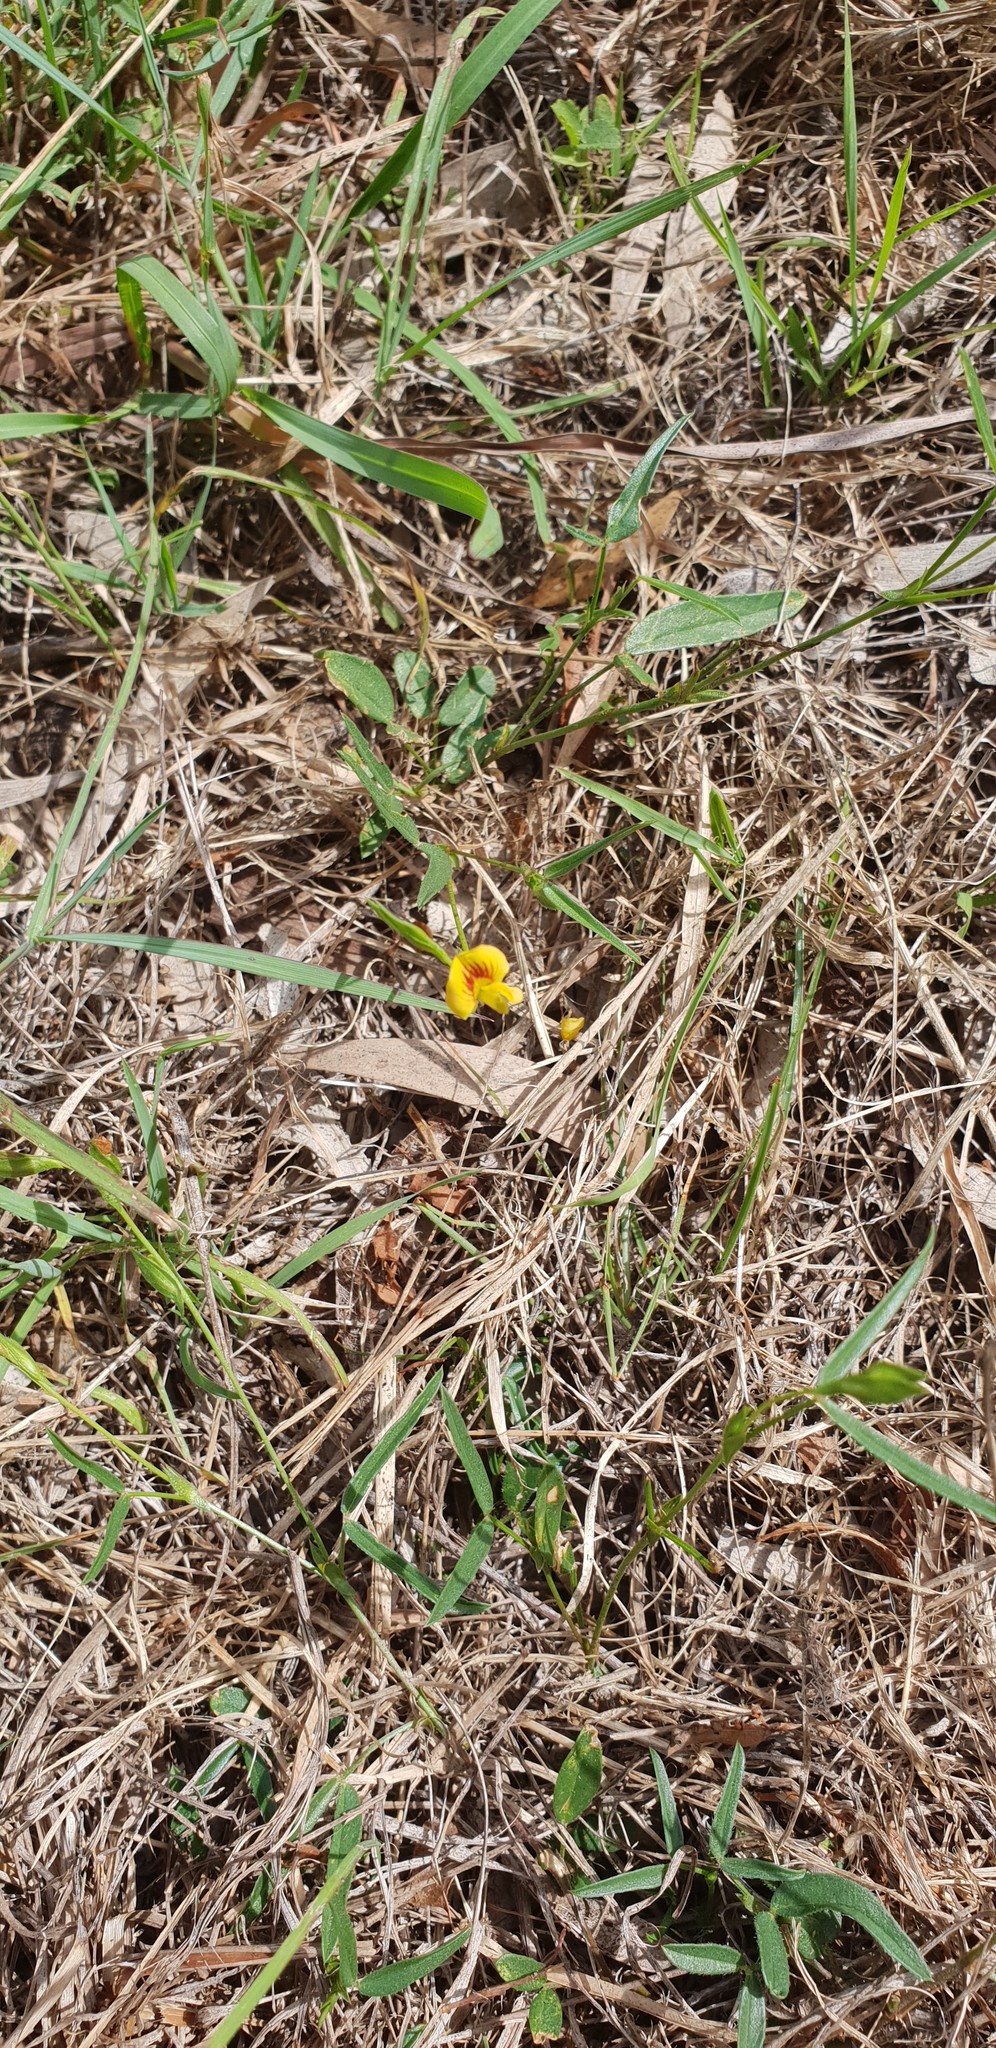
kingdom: Plantae
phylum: Tracheophyta
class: Magnoliopsida
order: Fabales
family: Fabaceae
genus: Zornia
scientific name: Zornia dyctiocarpa
